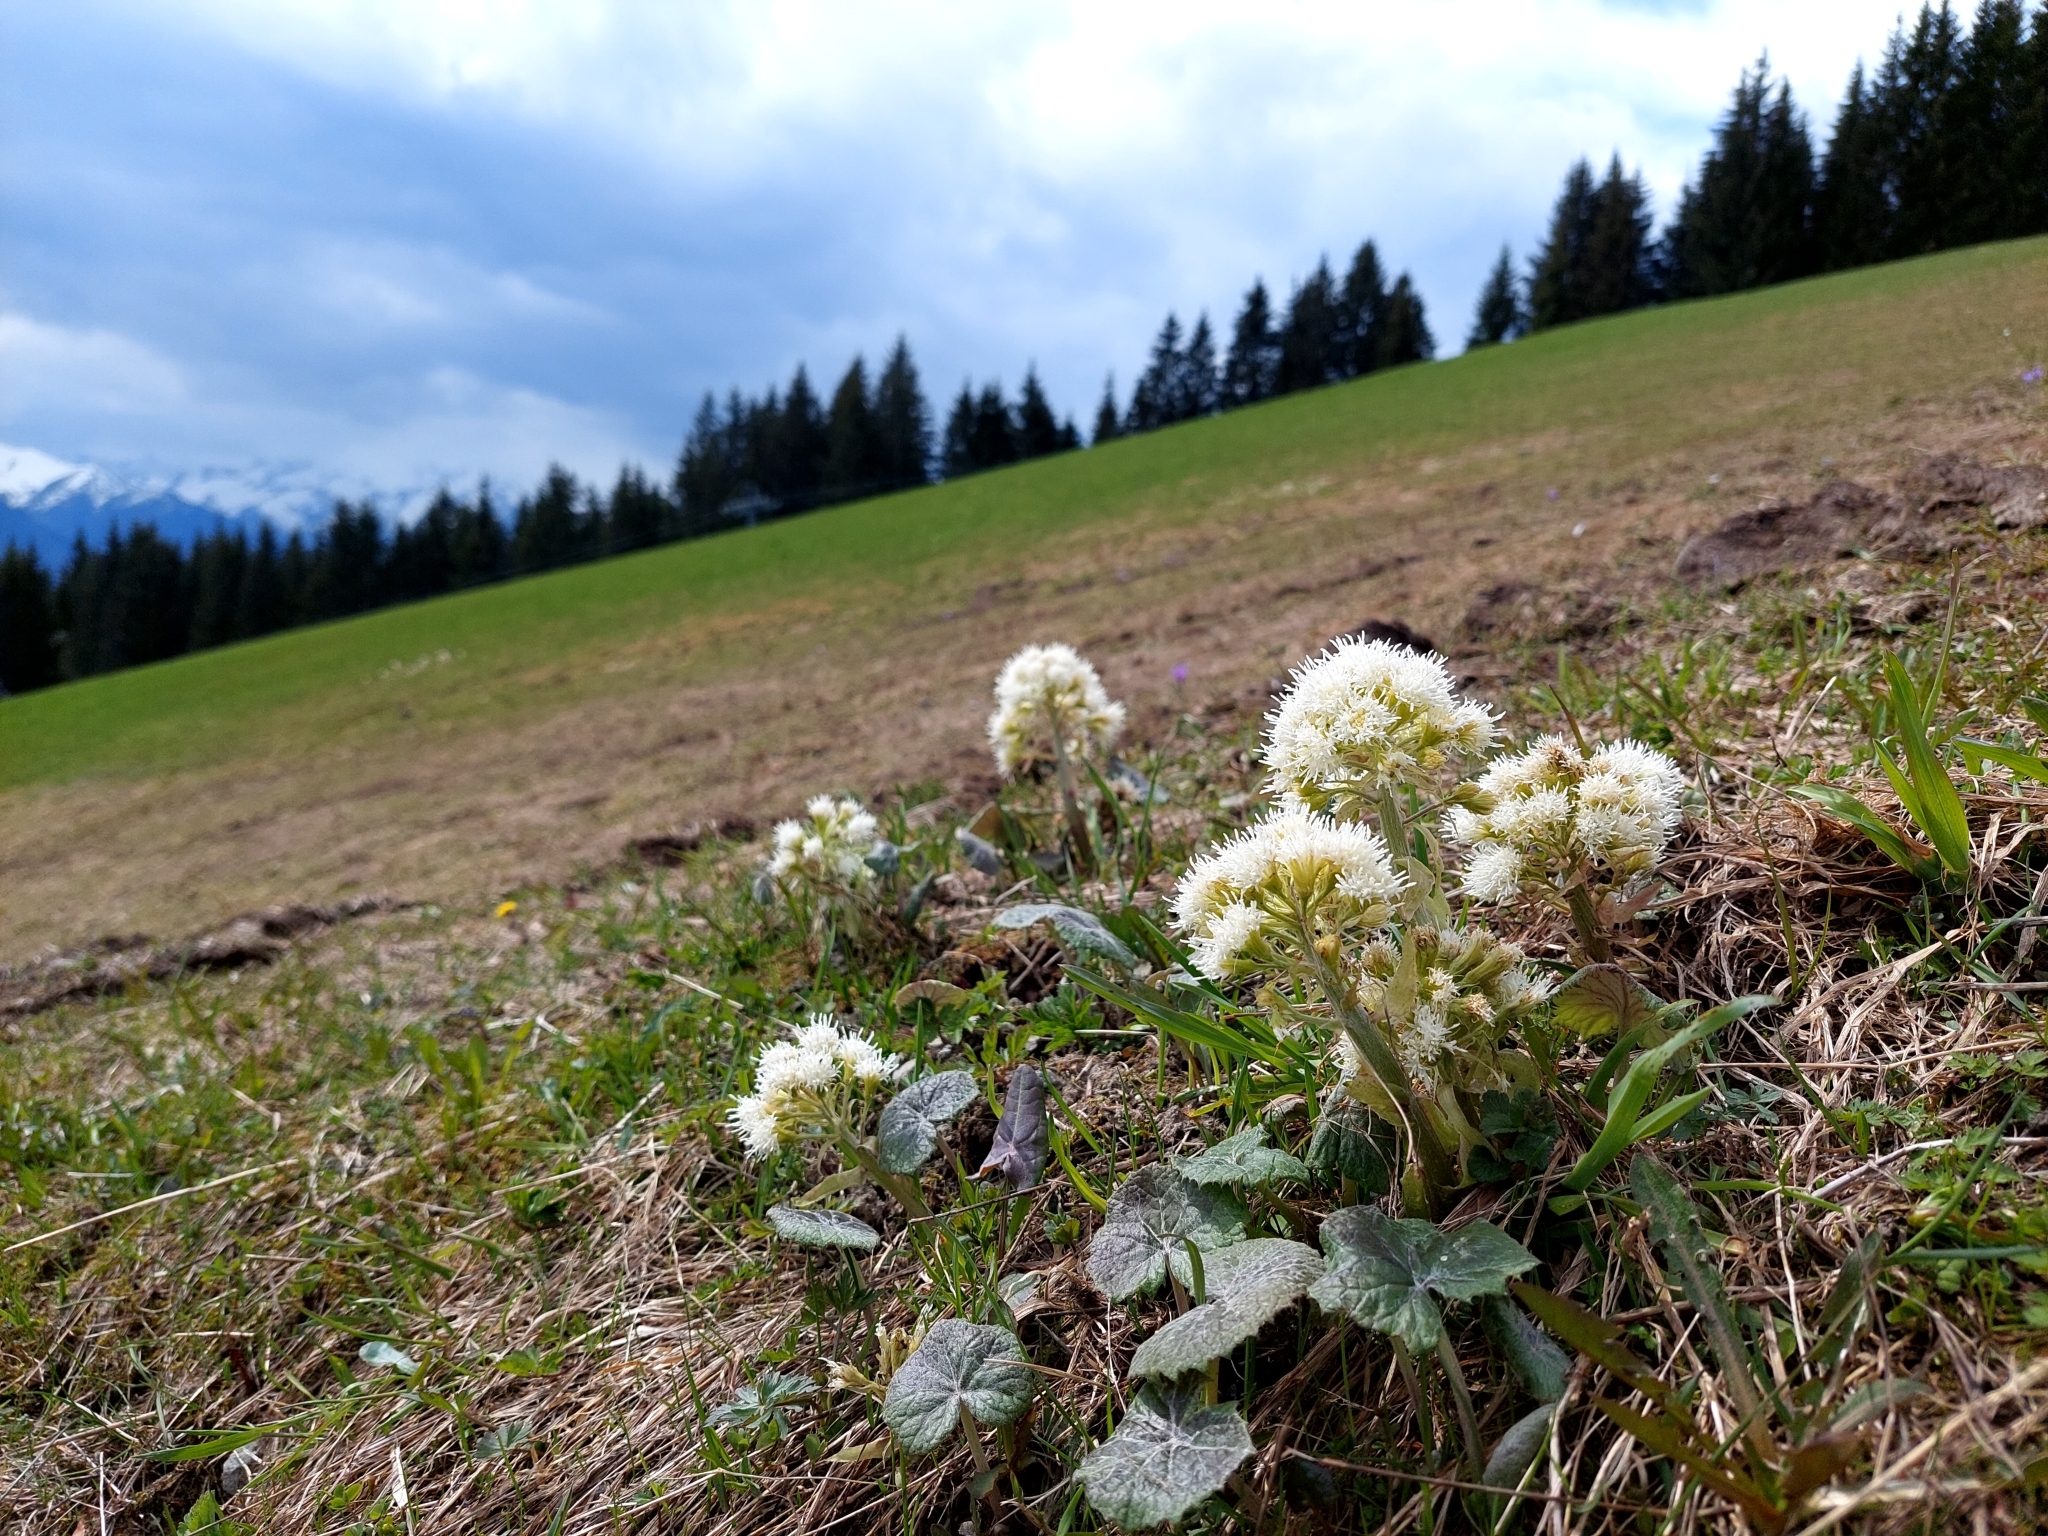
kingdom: Plantae
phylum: Tracheophyta
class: Magnoliopsida
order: Asterales
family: Asteraceae
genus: Petasites
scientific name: Petasites albus
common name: White butterbur
